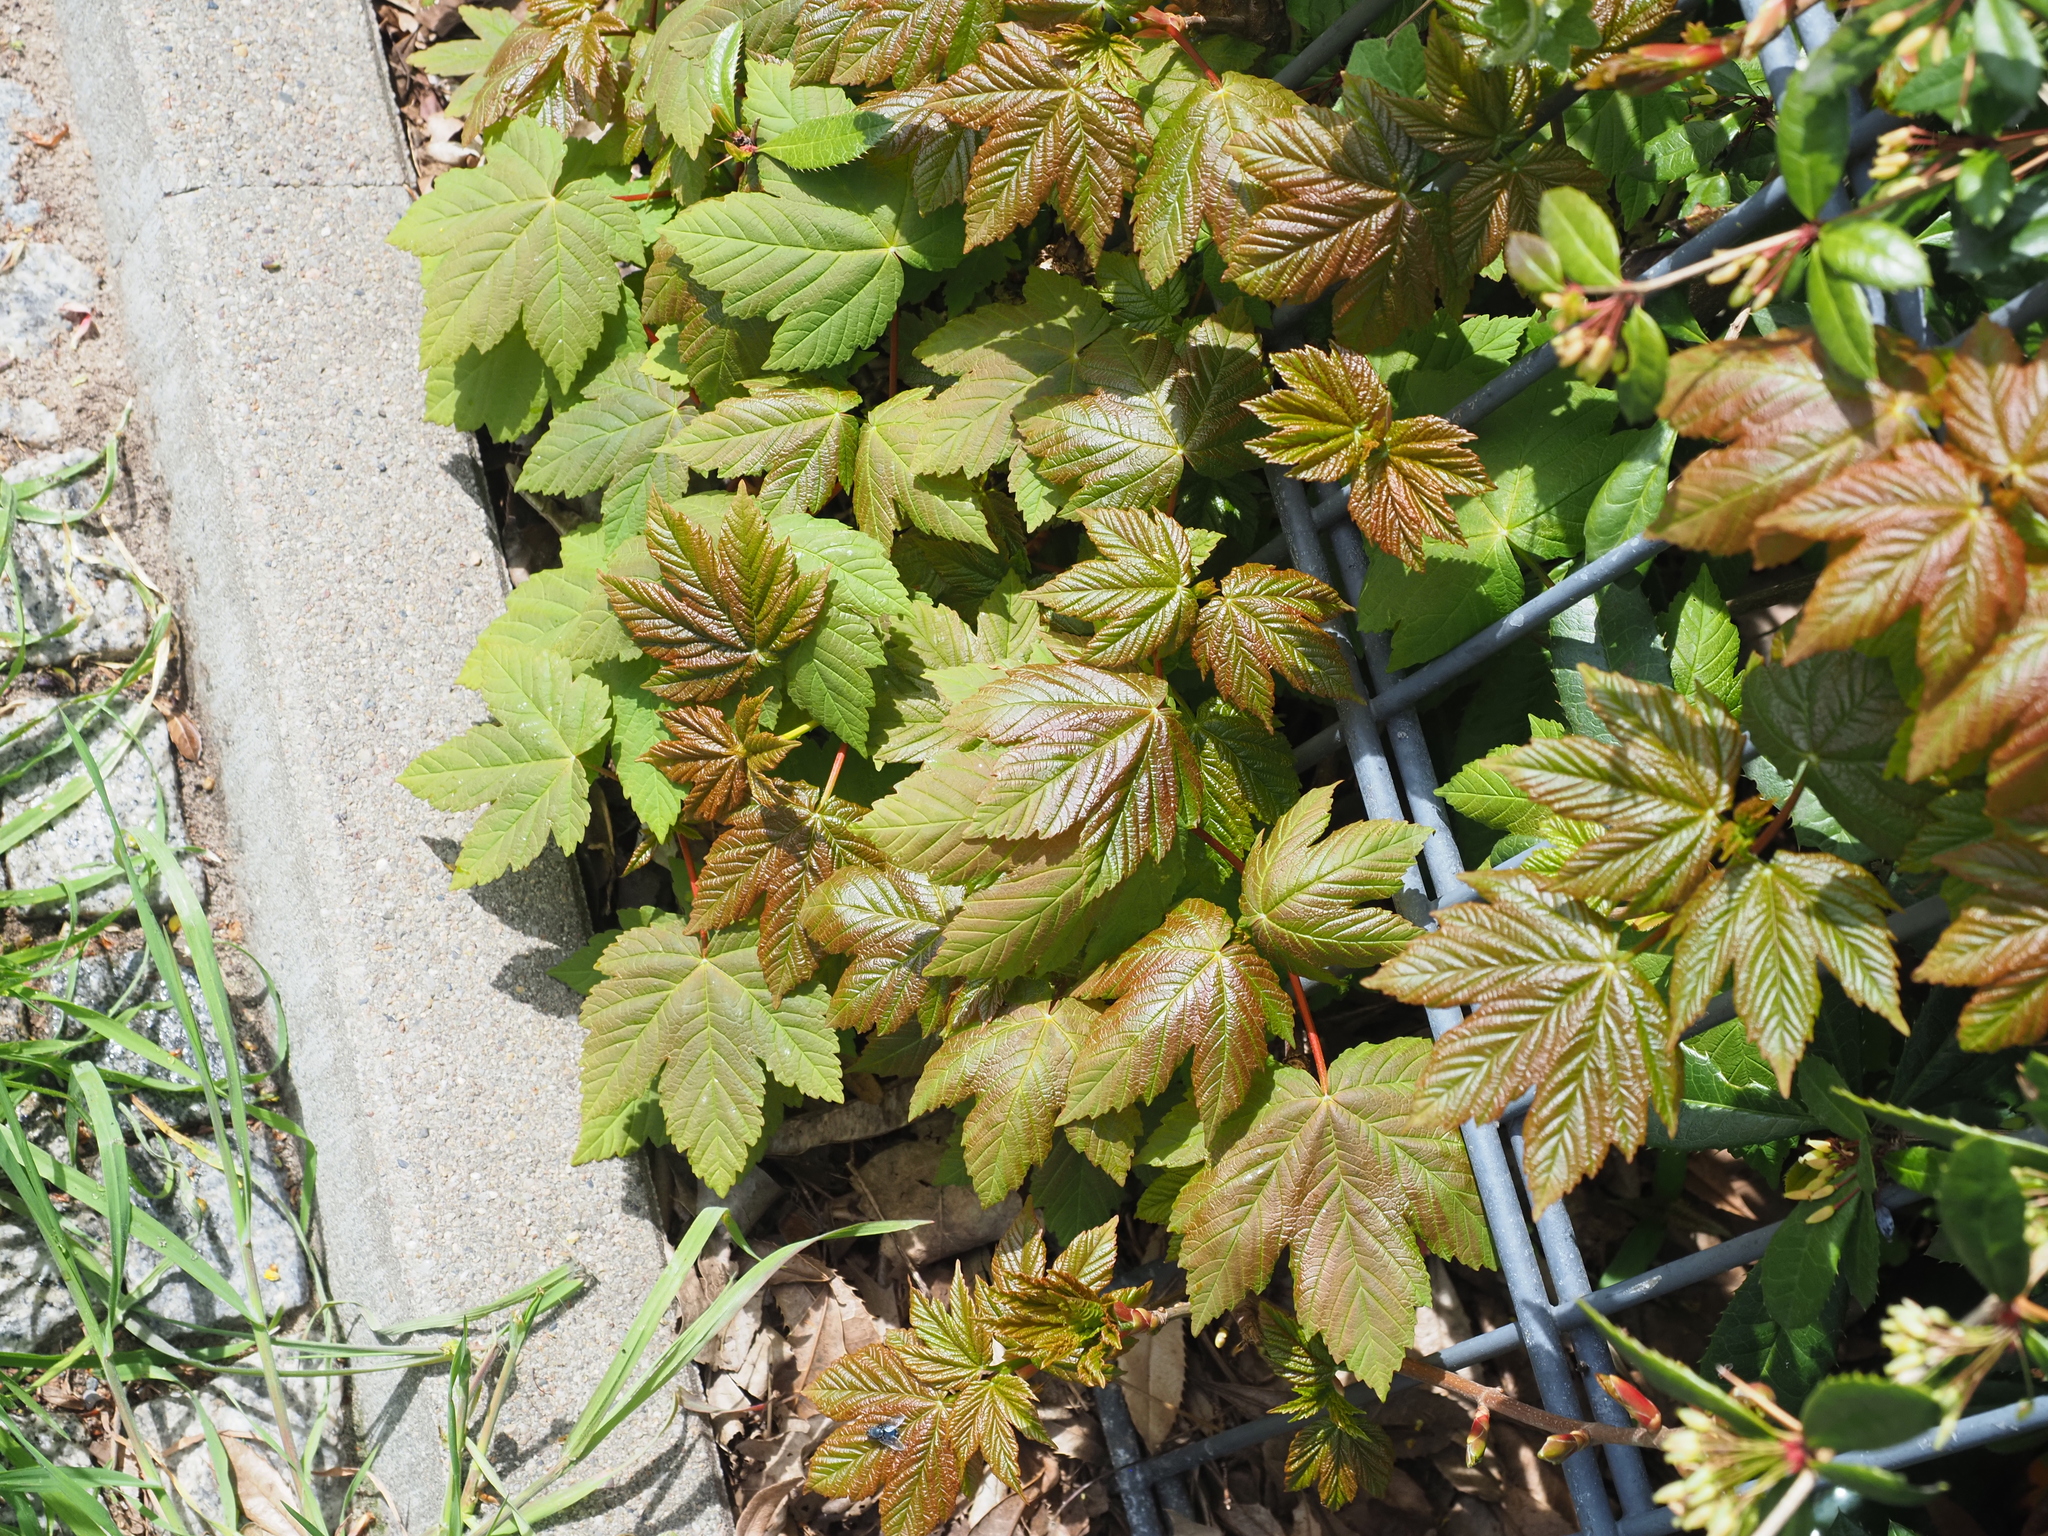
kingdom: Plantae
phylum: Tracheophyta
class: Magnoliopsida
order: Sapindales
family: Sapindaceae
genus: Acer
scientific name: Acer pseudoplatanus
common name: Sycamore
